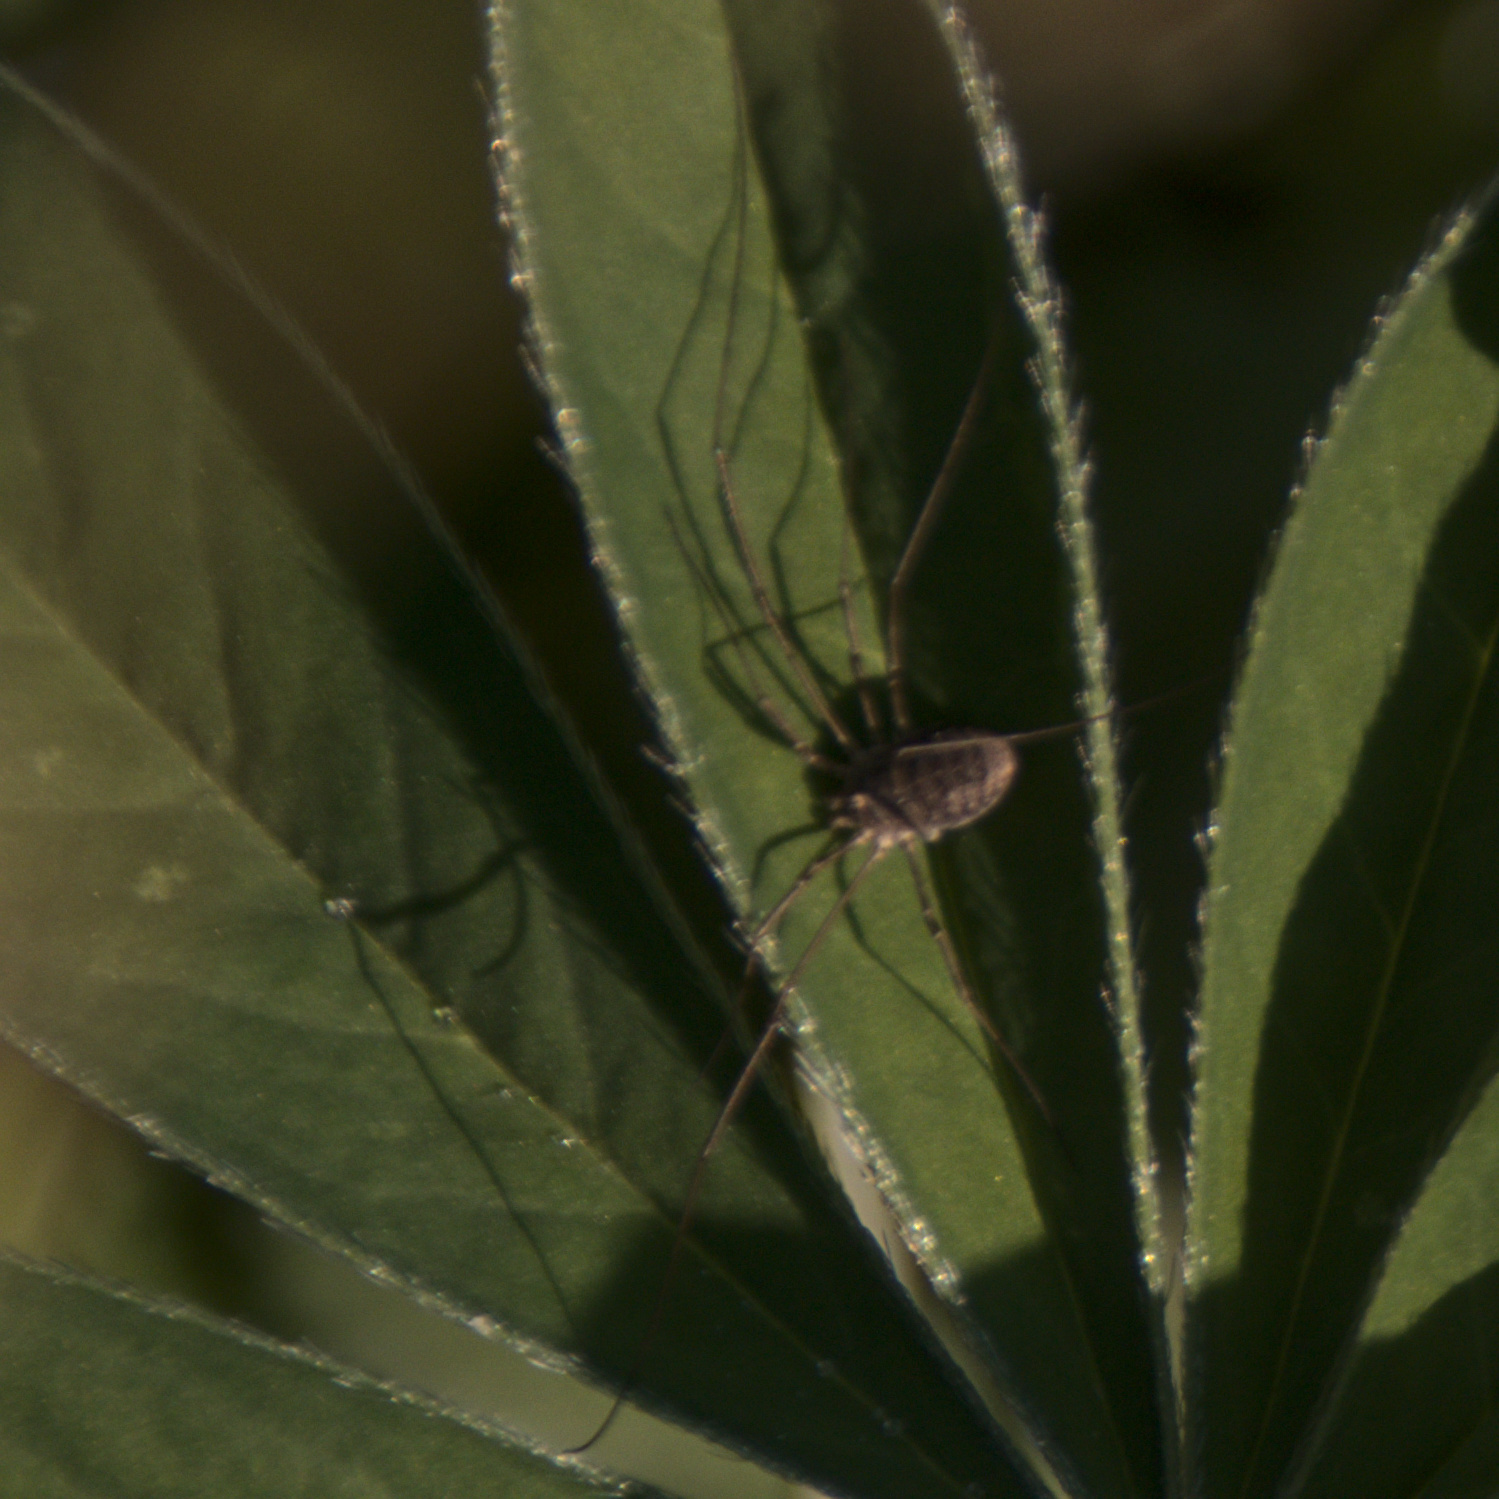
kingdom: Animalia
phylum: Arthropoda
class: Arachnida
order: Opiliones
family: Phalangiidae
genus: Phalangium
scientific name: Phalangium opilio
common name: Daddy longleg
